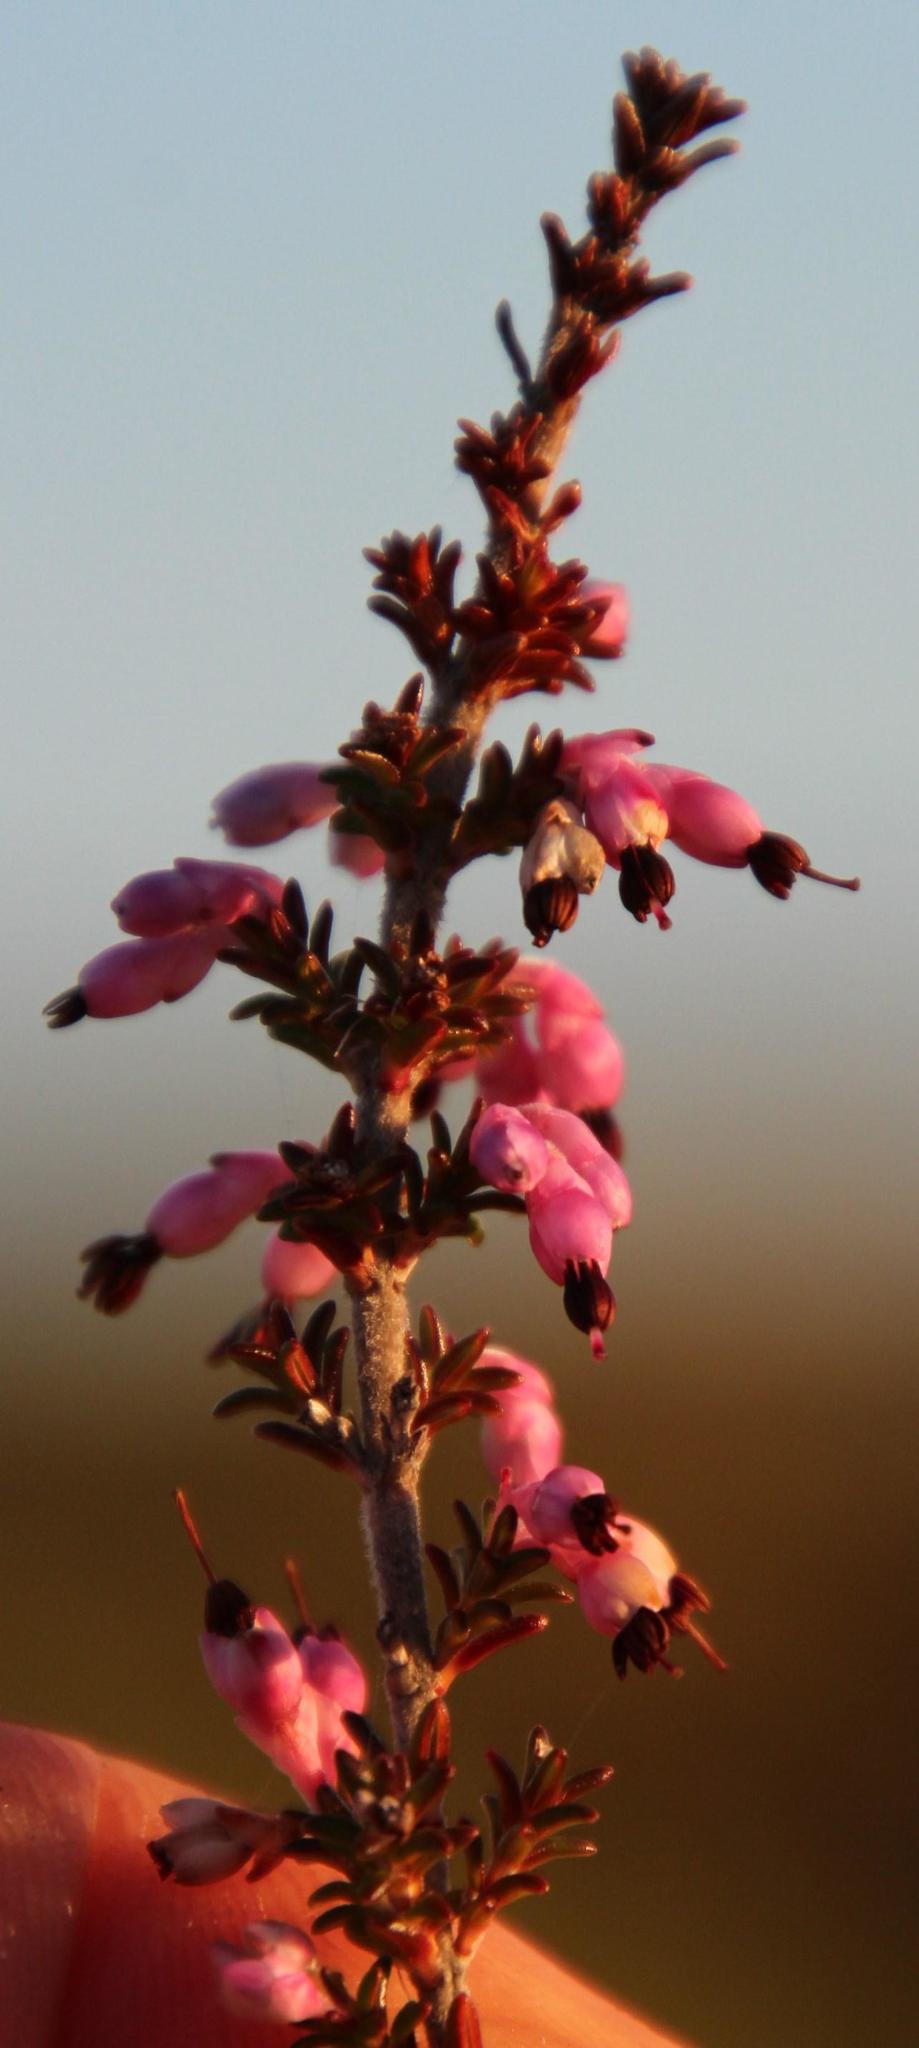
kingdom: Plantae
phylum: Tracheophyta
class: Magnoliopsida
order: Ericales
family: Ericaceae
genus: Erica
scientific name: Erica placentiflora
